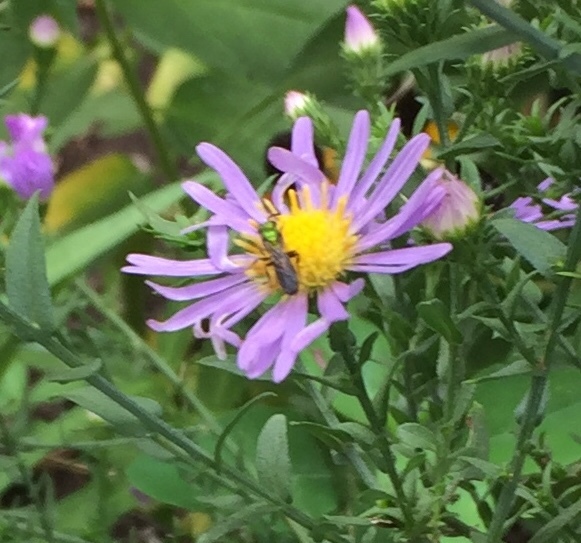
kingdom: Animalia
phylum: Arthropoda
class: Insecta
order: Hymenoptera
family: Halictidae
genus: Augochlora
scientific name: Augochlora pura
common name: Pure green sweat bee
